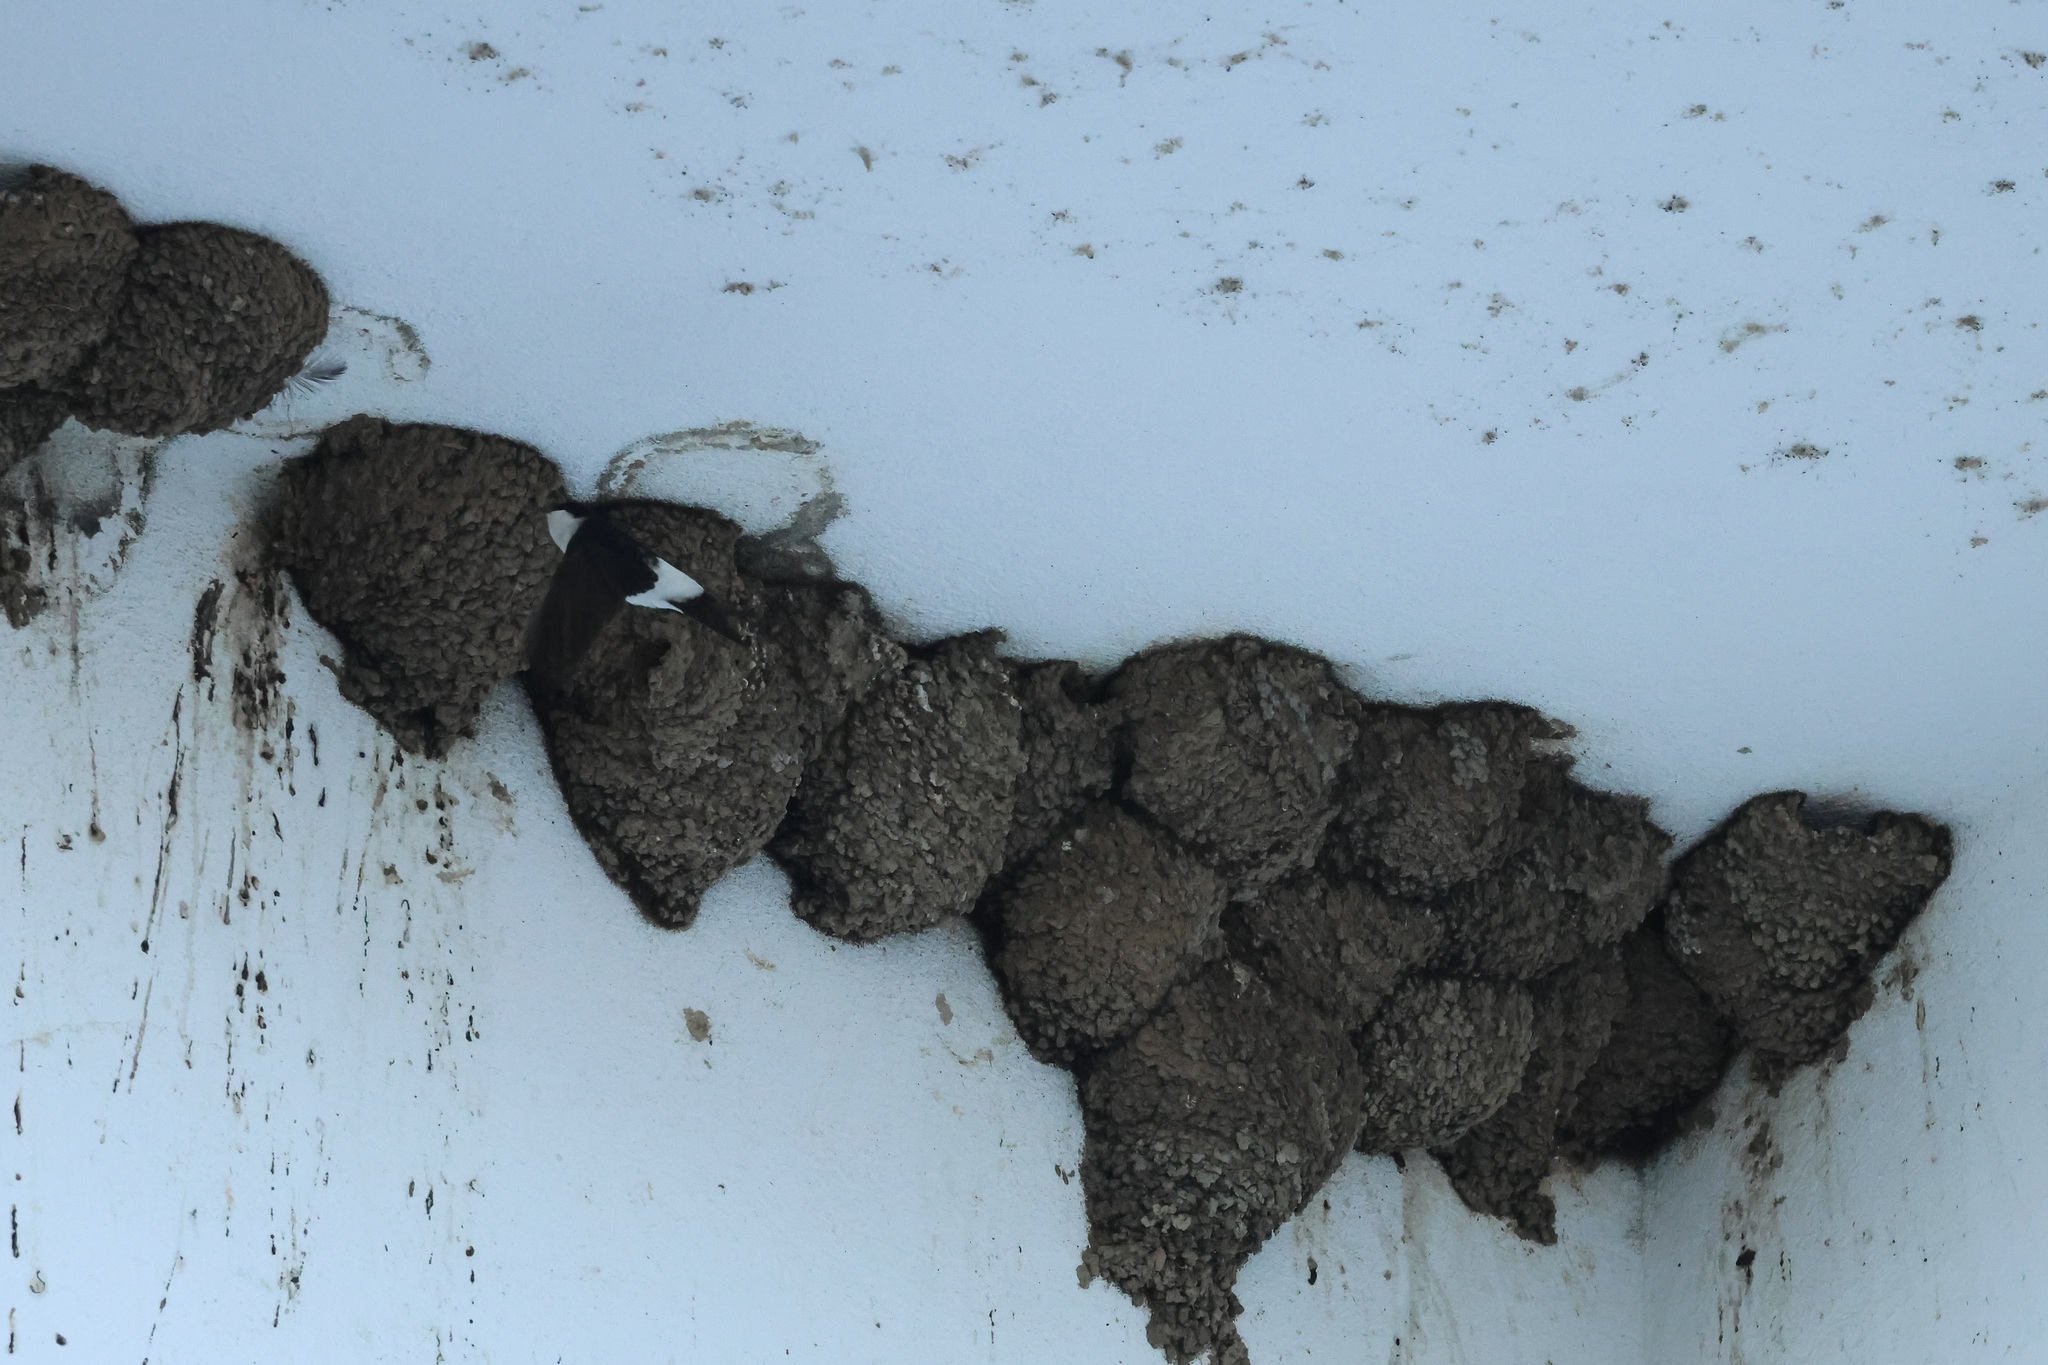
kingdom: Animalia
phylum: Chordata
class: Aves
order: Passeriformes
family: Hirundinidae
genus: Delichon
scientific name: Delichon urbicum
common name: Common house martin
